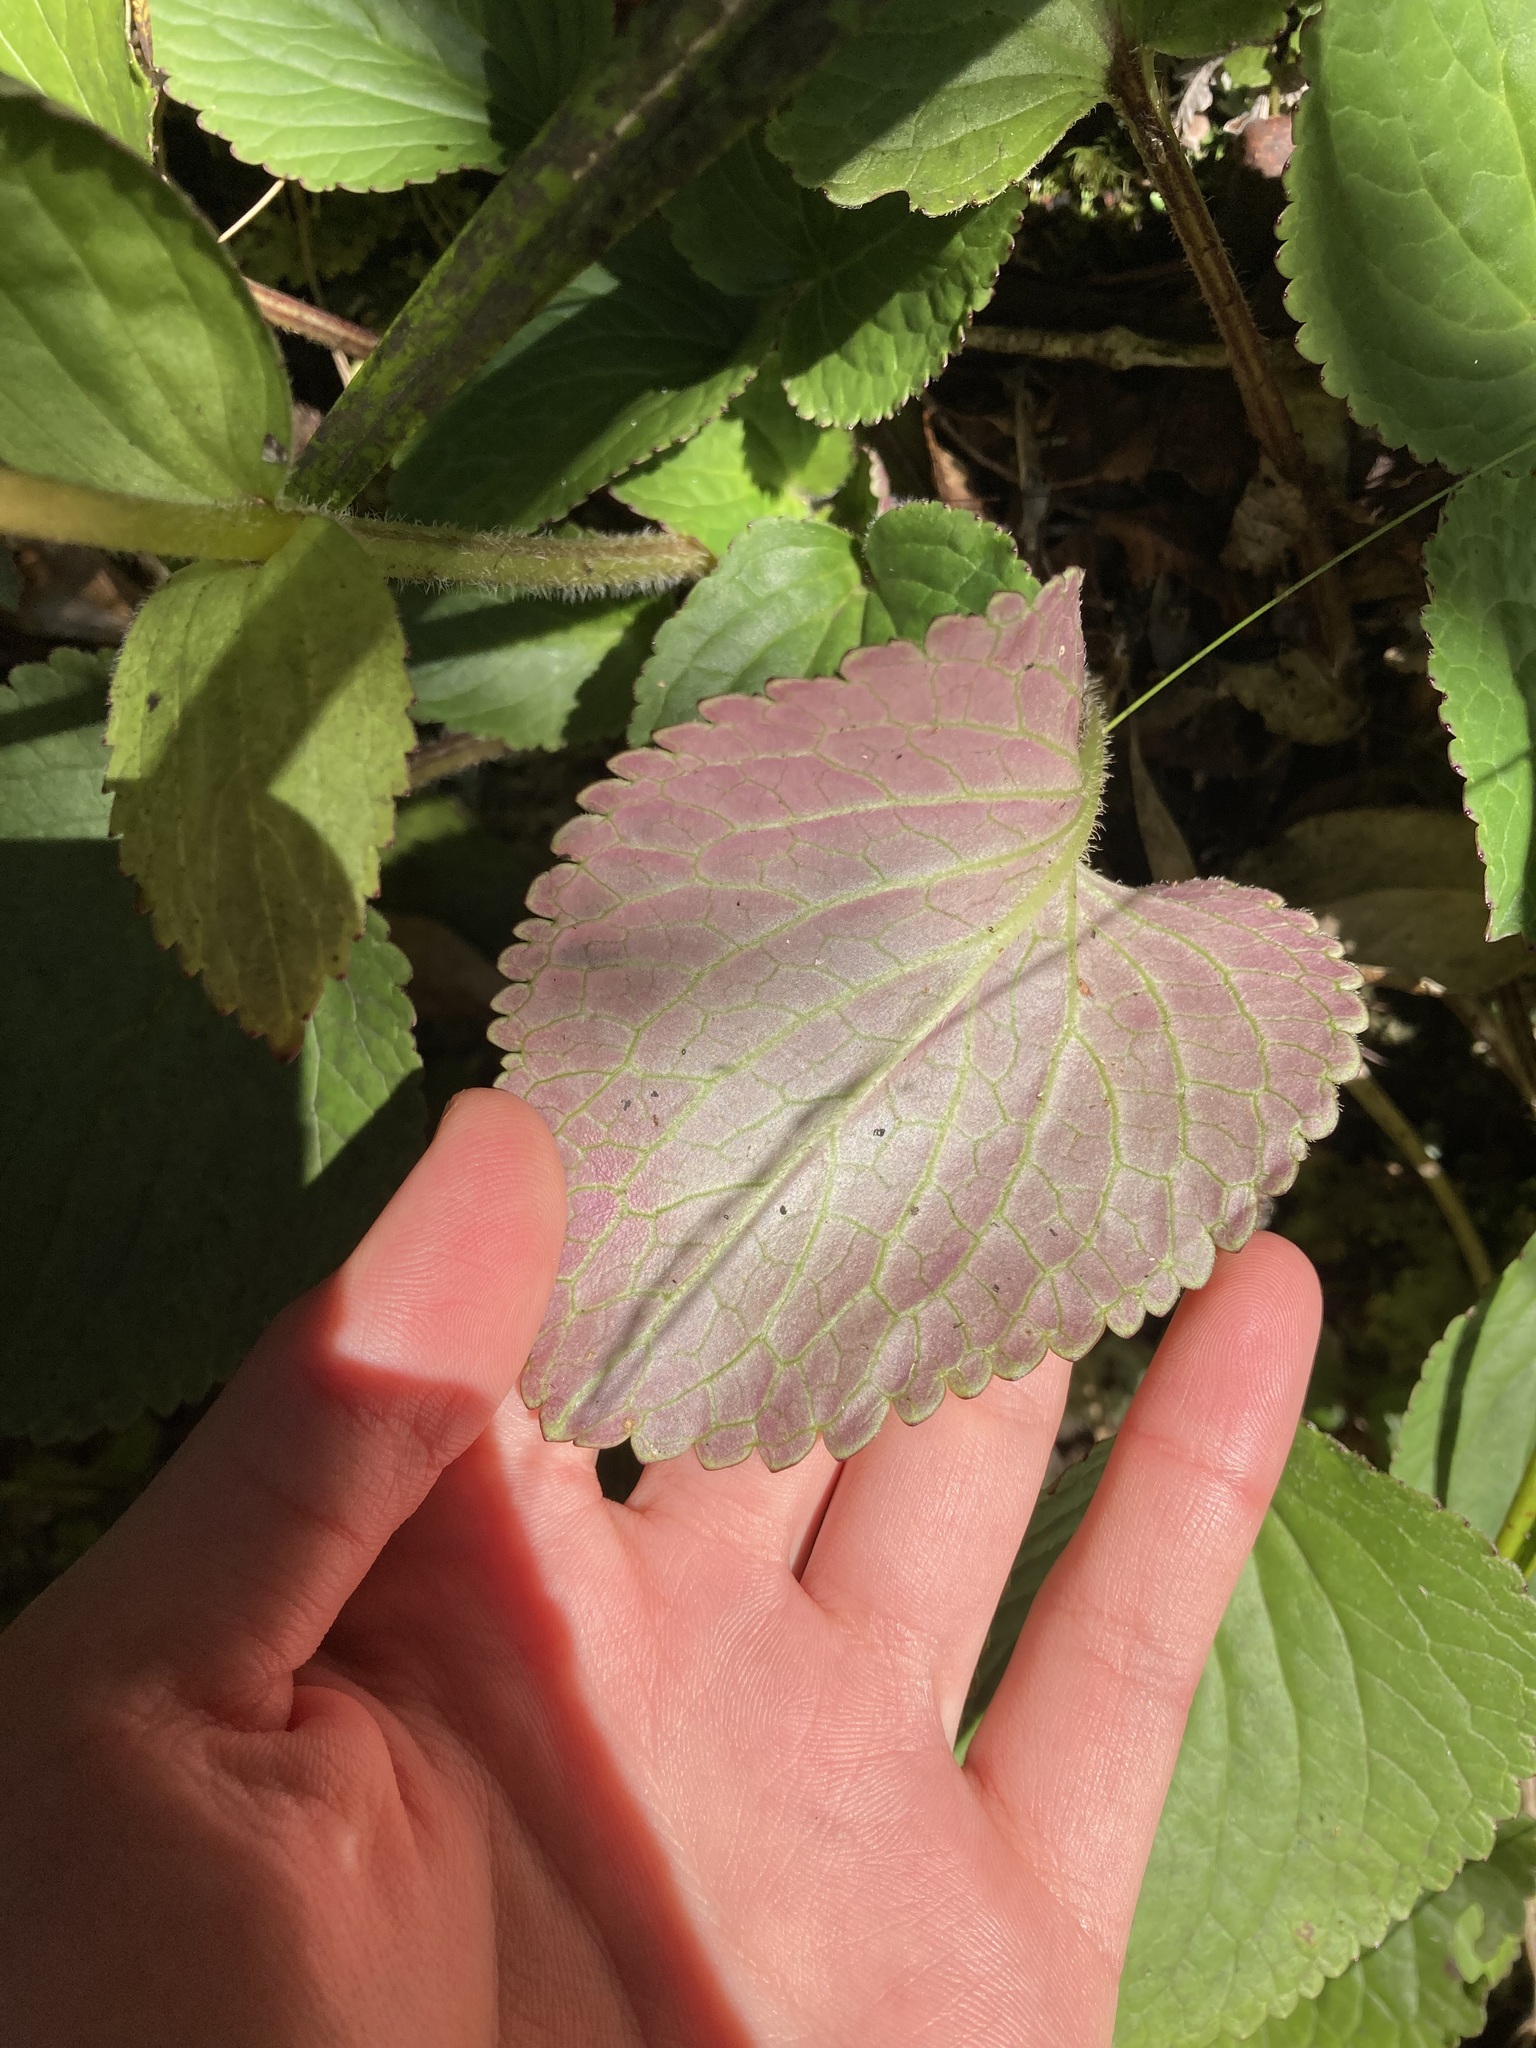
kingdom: Plantae
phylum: Tracheophyta
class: Magnoliopsida
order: Lamiales
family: Plantaginaceae
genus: Ourisia
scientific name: Ourisia macrophylla
